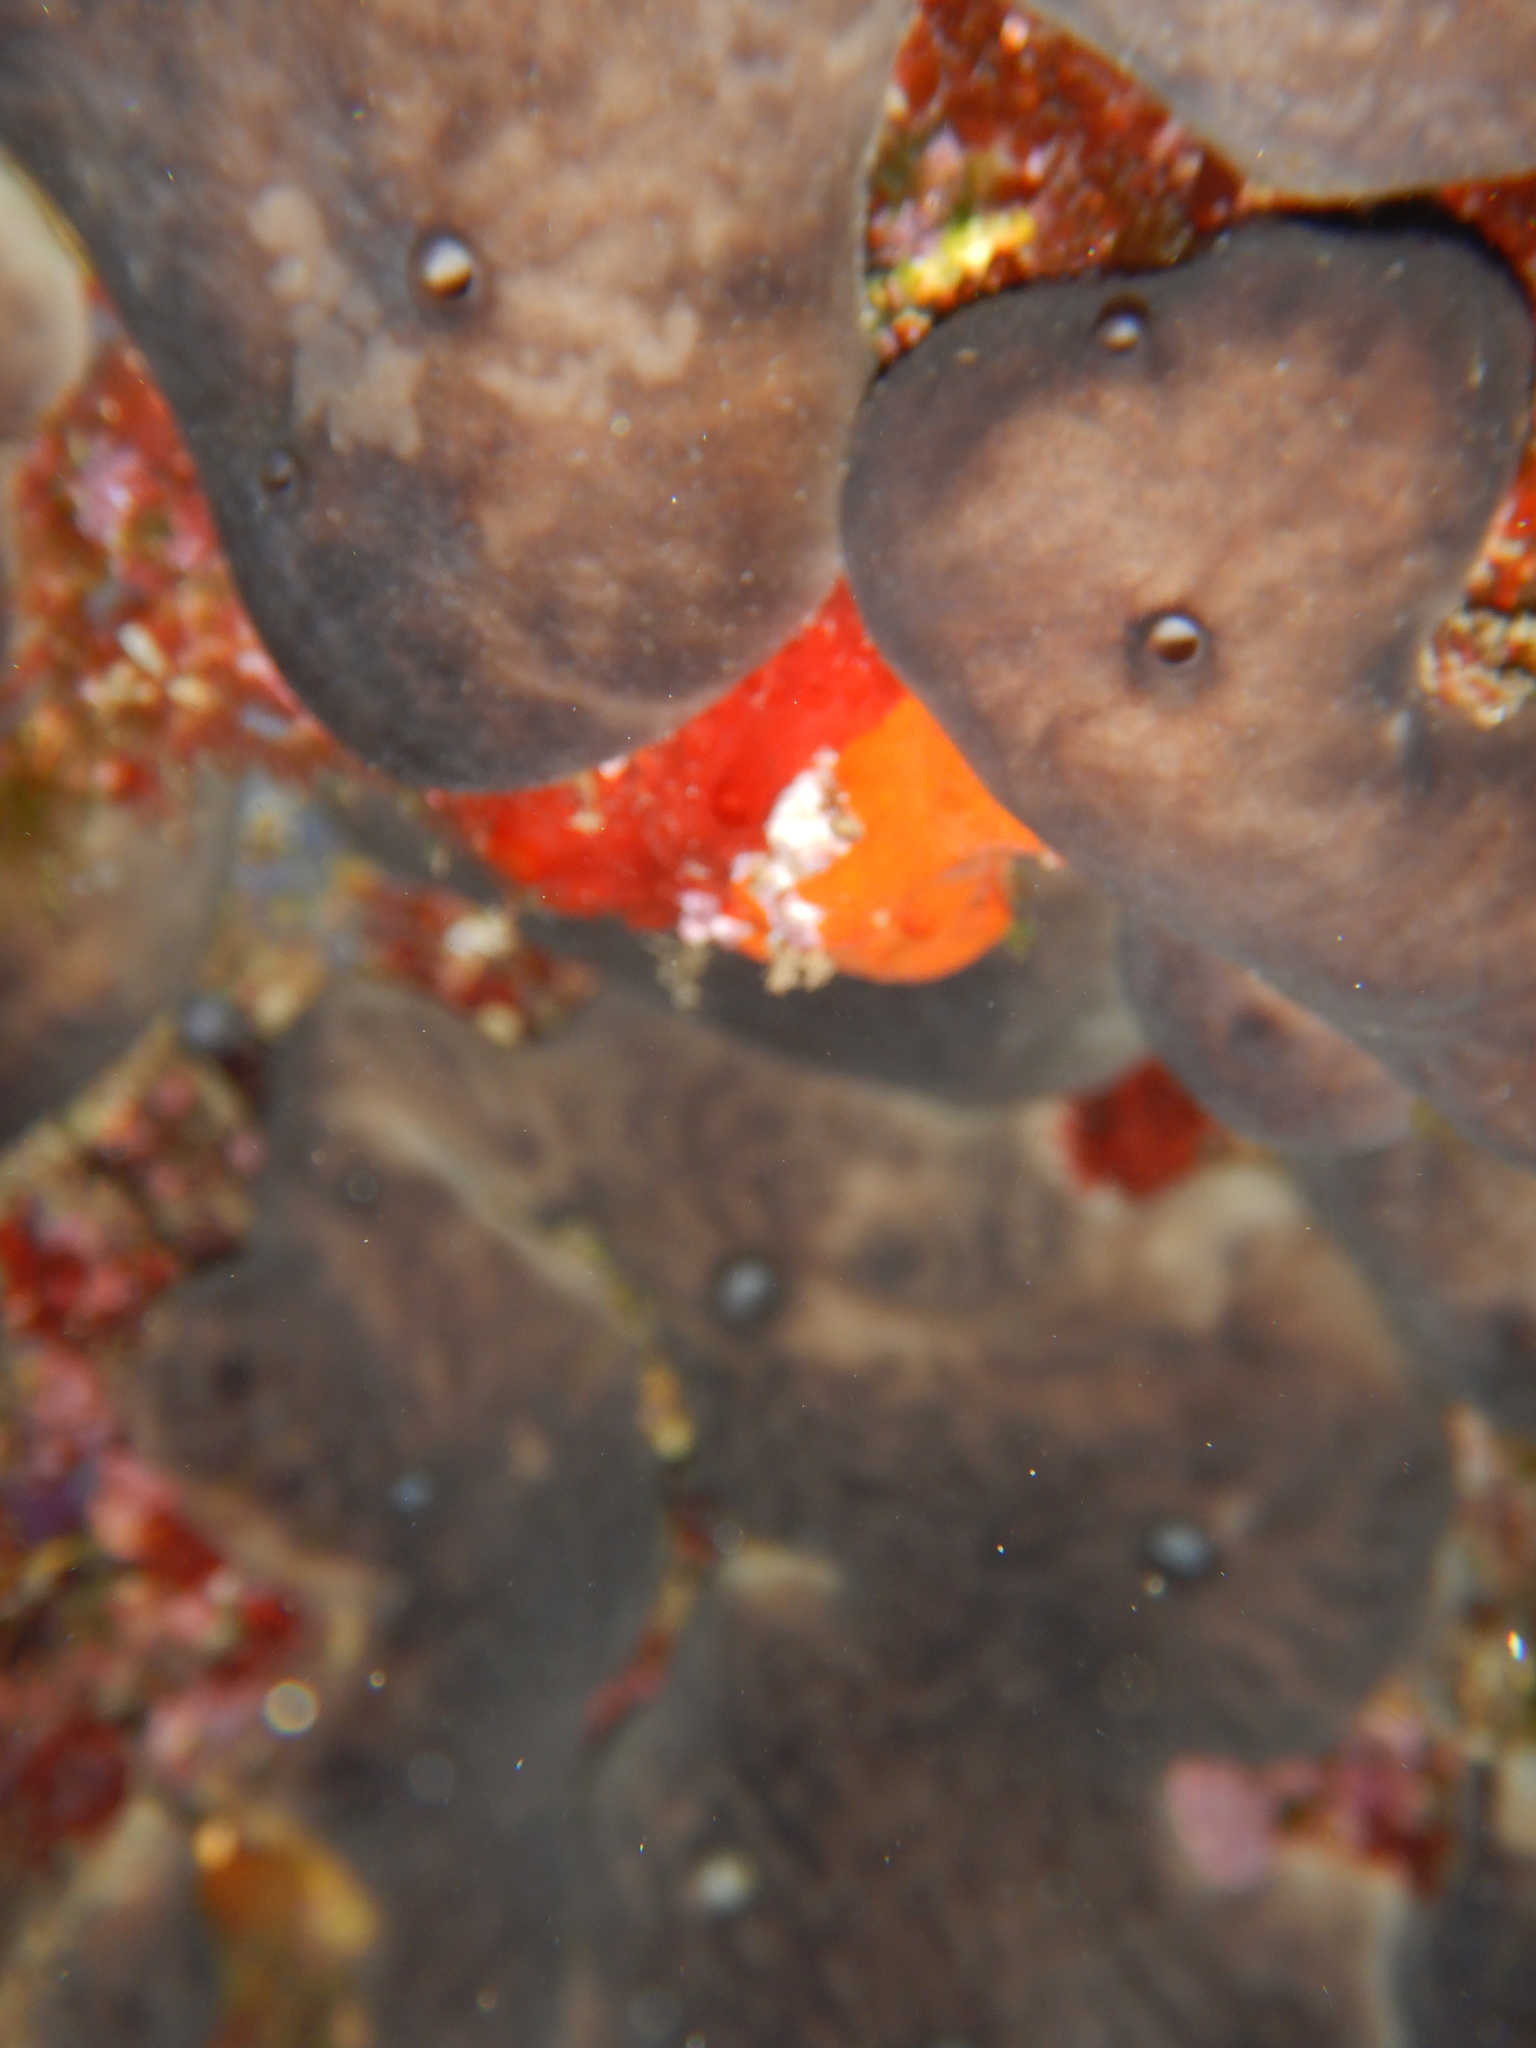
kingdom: Animalia
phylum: Porifera
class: Demospongiae
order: Chondrosiida
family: Chondrosiidae
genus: Chondrosia
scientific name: Chondrosia reniformis
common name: Chicken liver sponge
